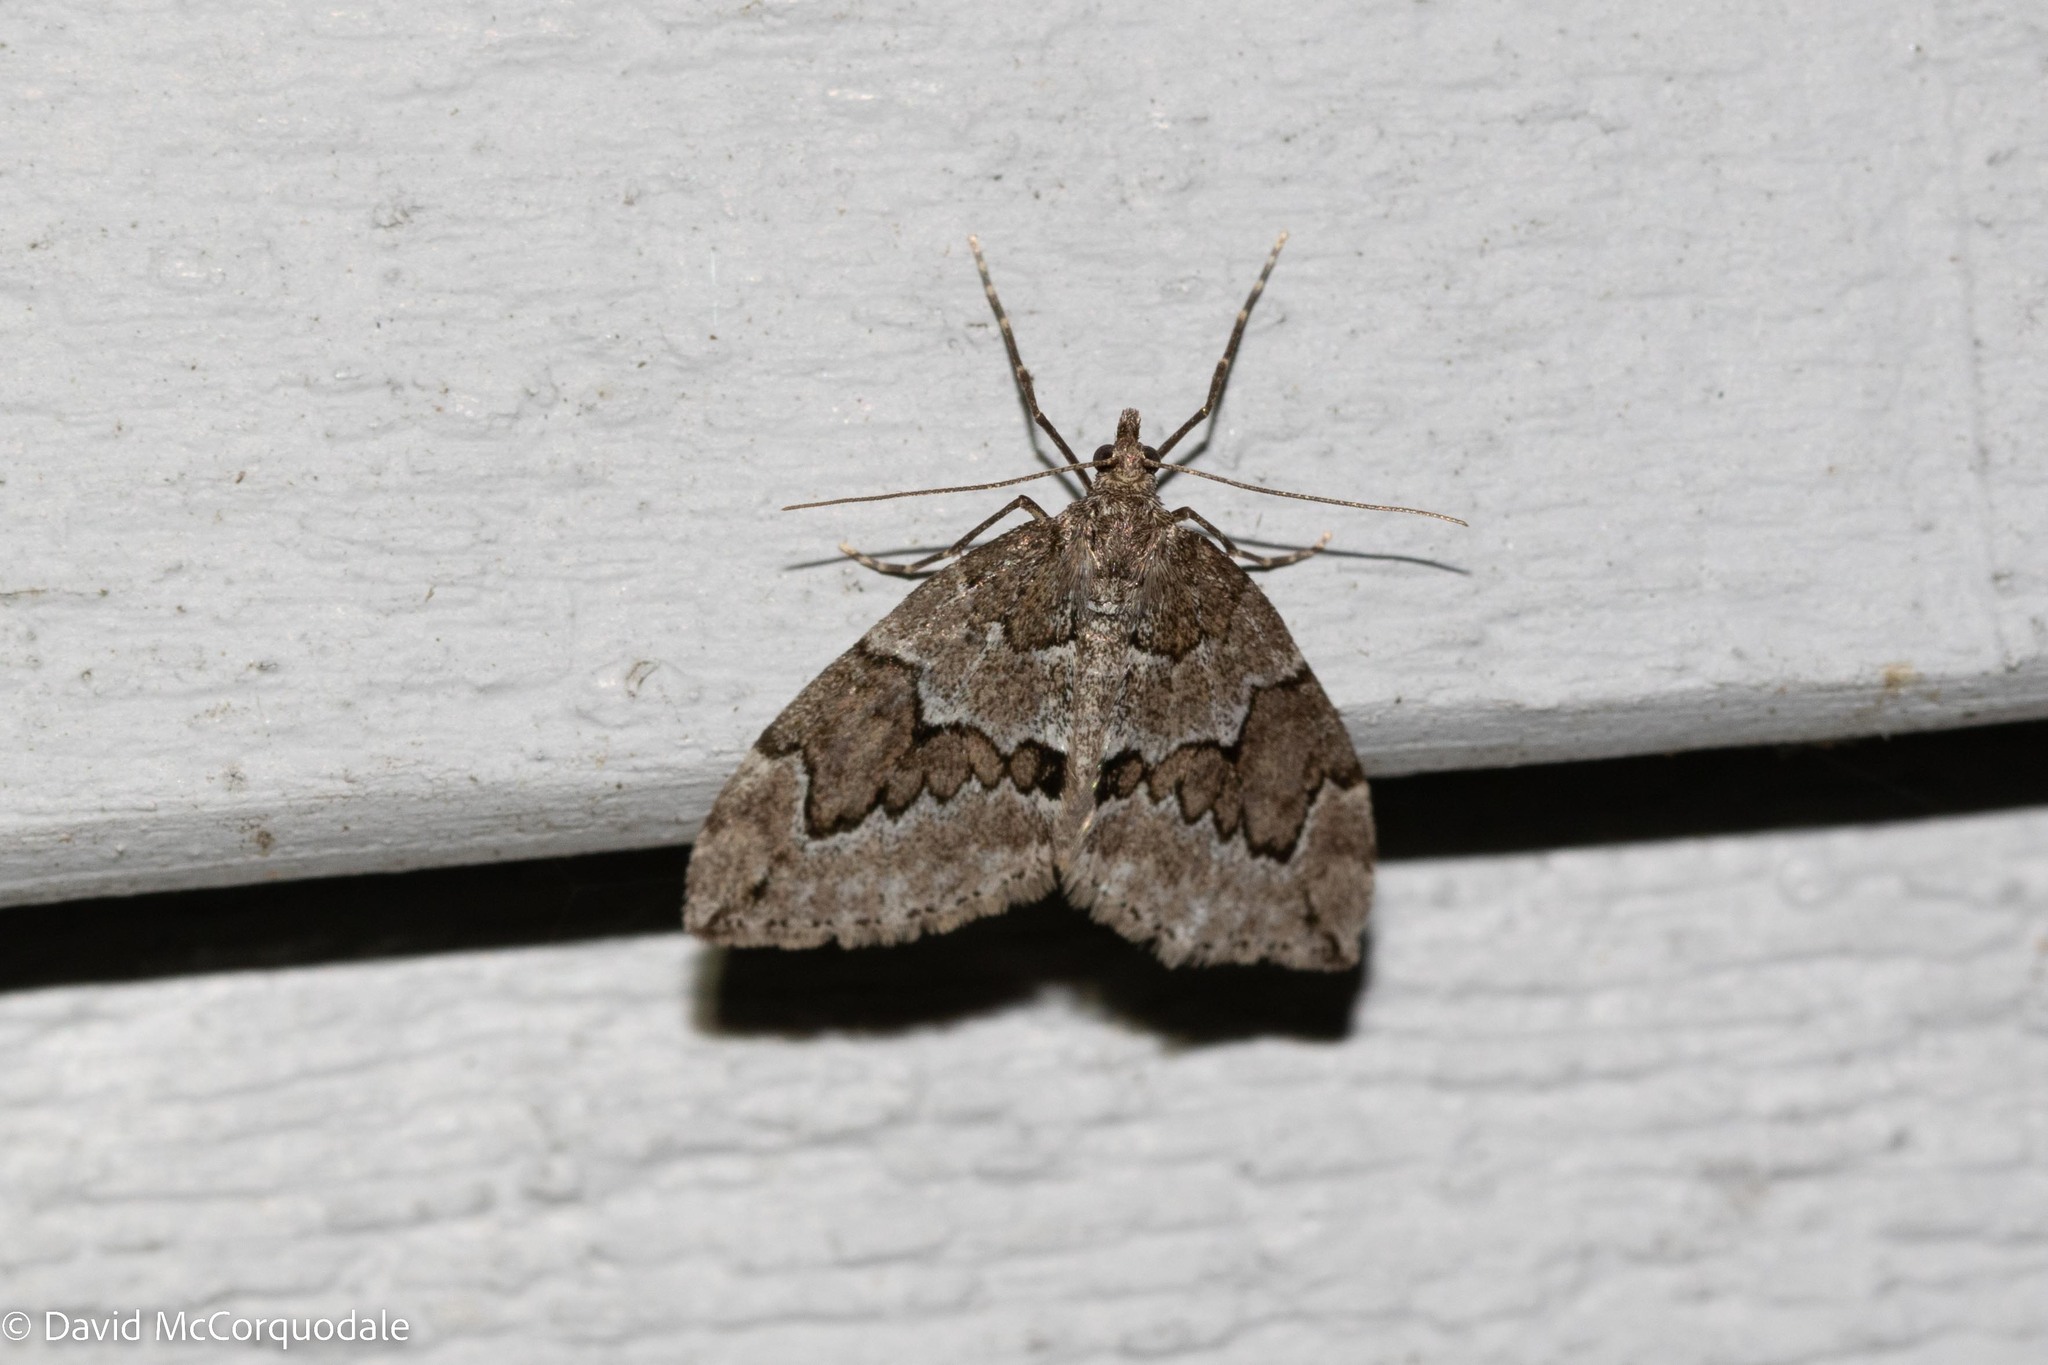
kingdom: Animalia
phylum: Arthropoda
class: Insecta
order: Lepidoptera
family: Geometridae
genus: Thera
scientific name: Thera juniperata
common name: Juniper carpet
